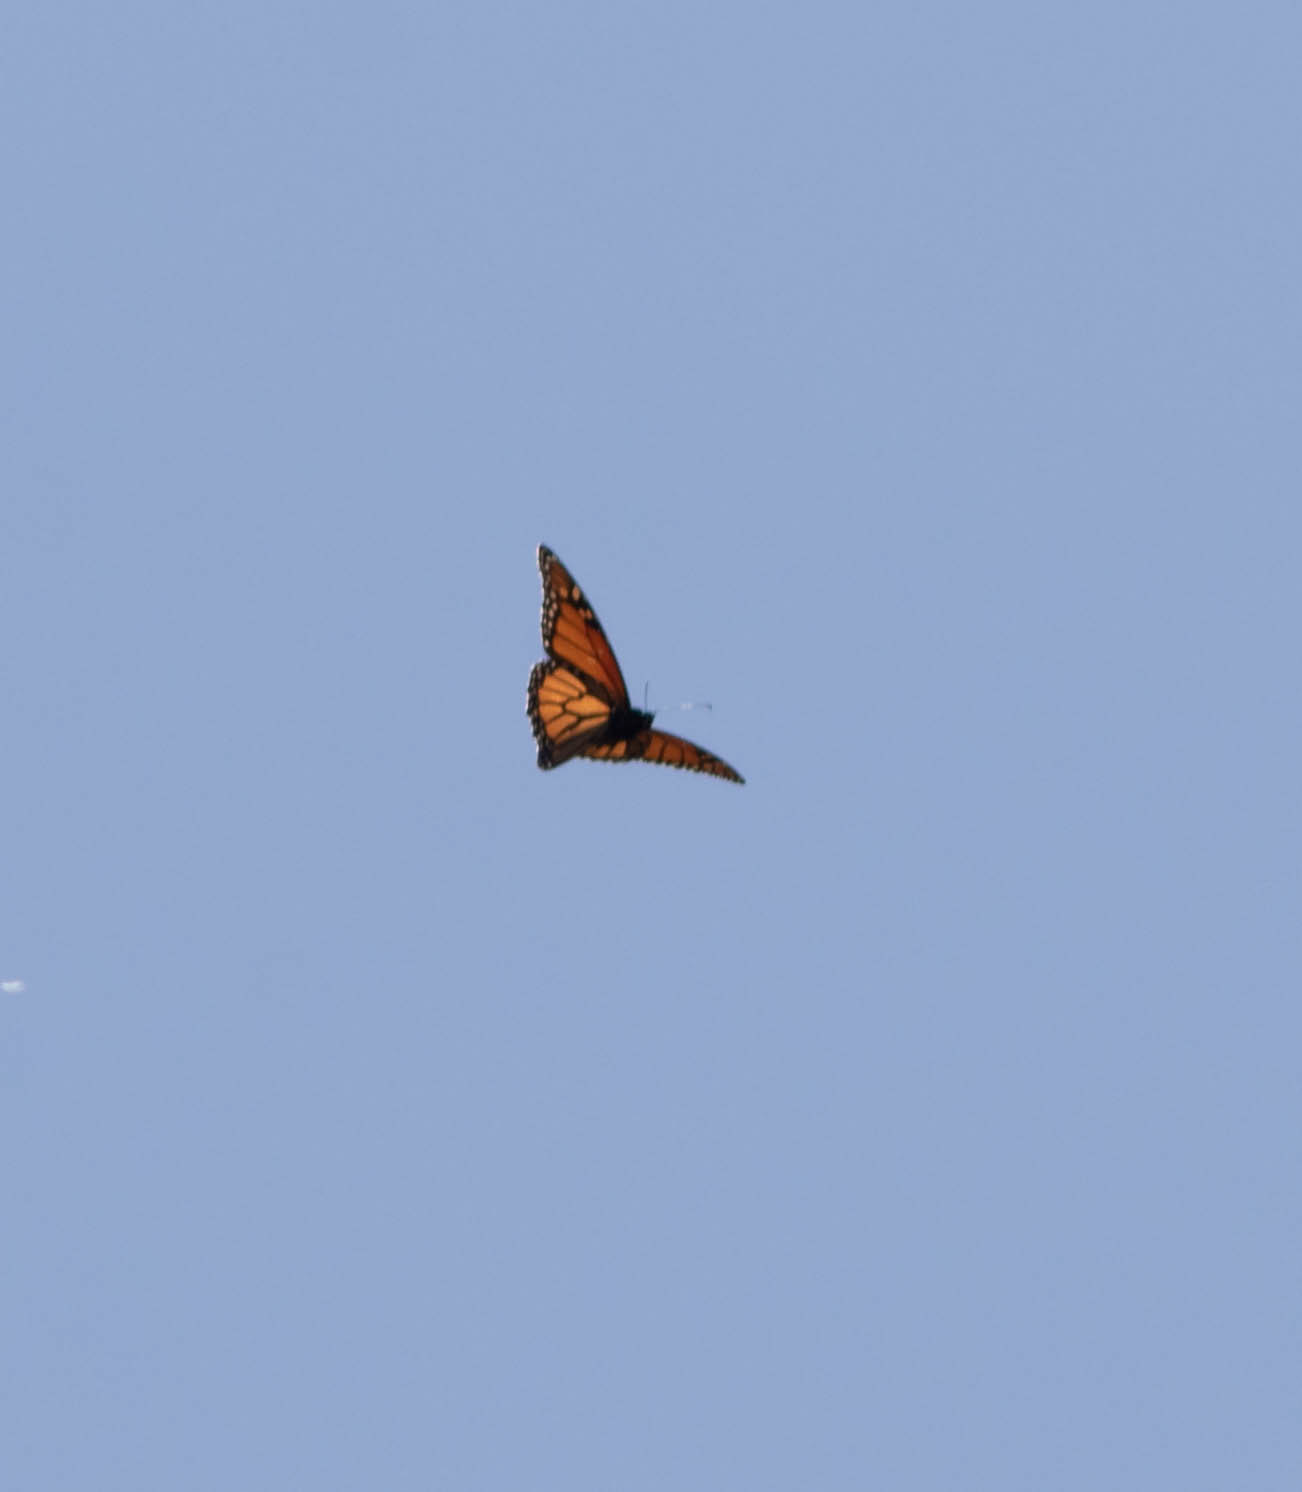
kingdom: Animalia
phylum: Arthropoda
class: Insecta
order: Lepidoptera
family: Nymphalidae
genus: Danaus
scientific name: Danaus plexippus
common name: Monarch
